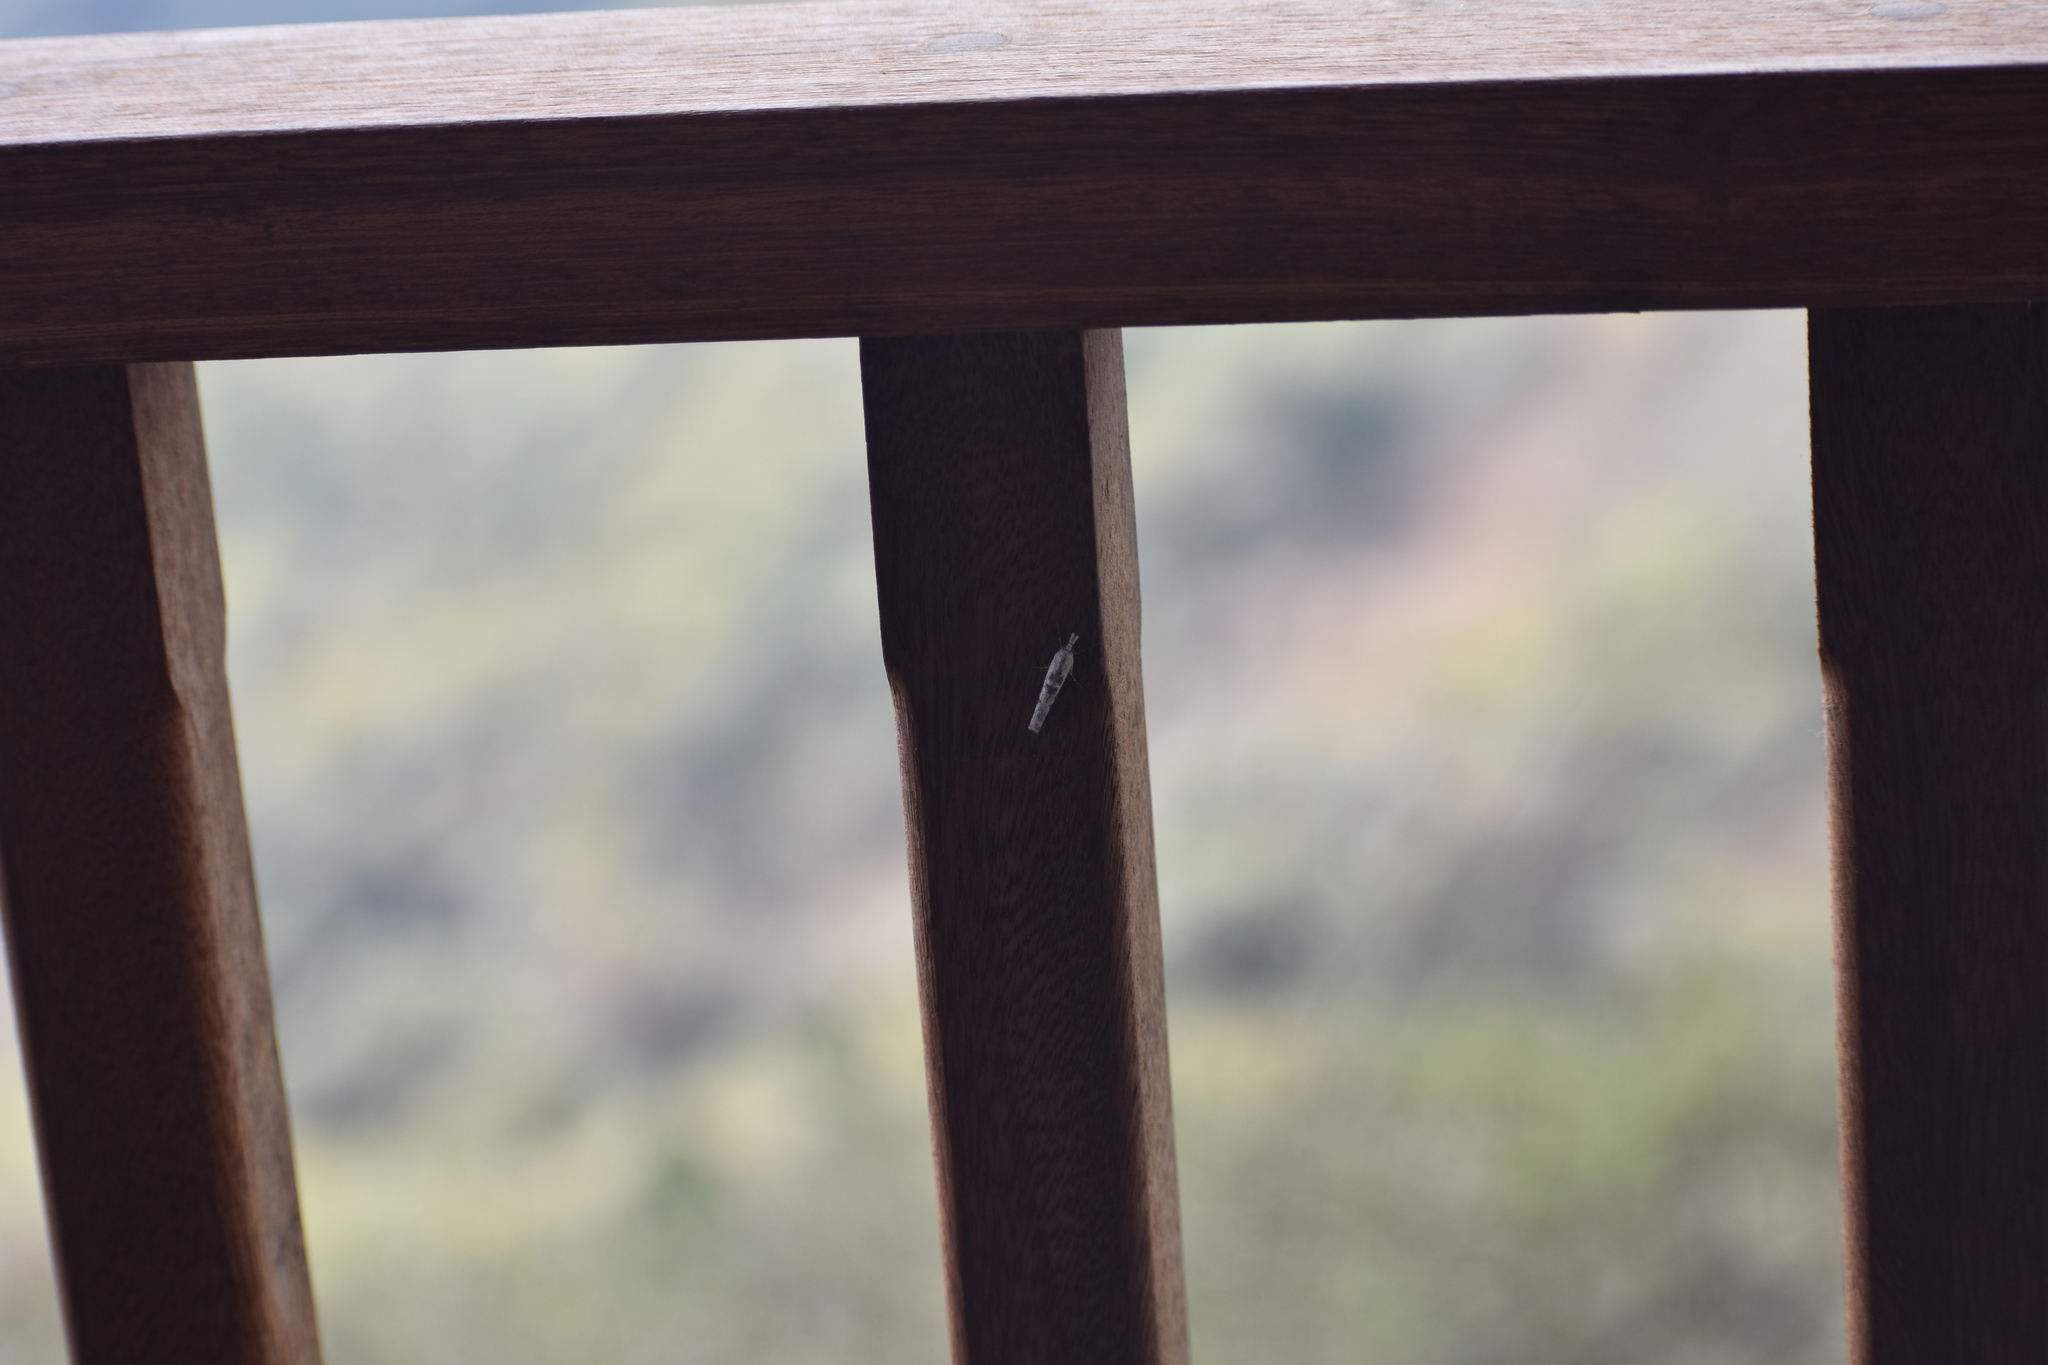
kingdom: Animalia
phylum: Arthropoda
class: Insecta
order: Lepidoptera
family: Crambidae
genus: Crambus
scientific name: Crambus sparsellus
